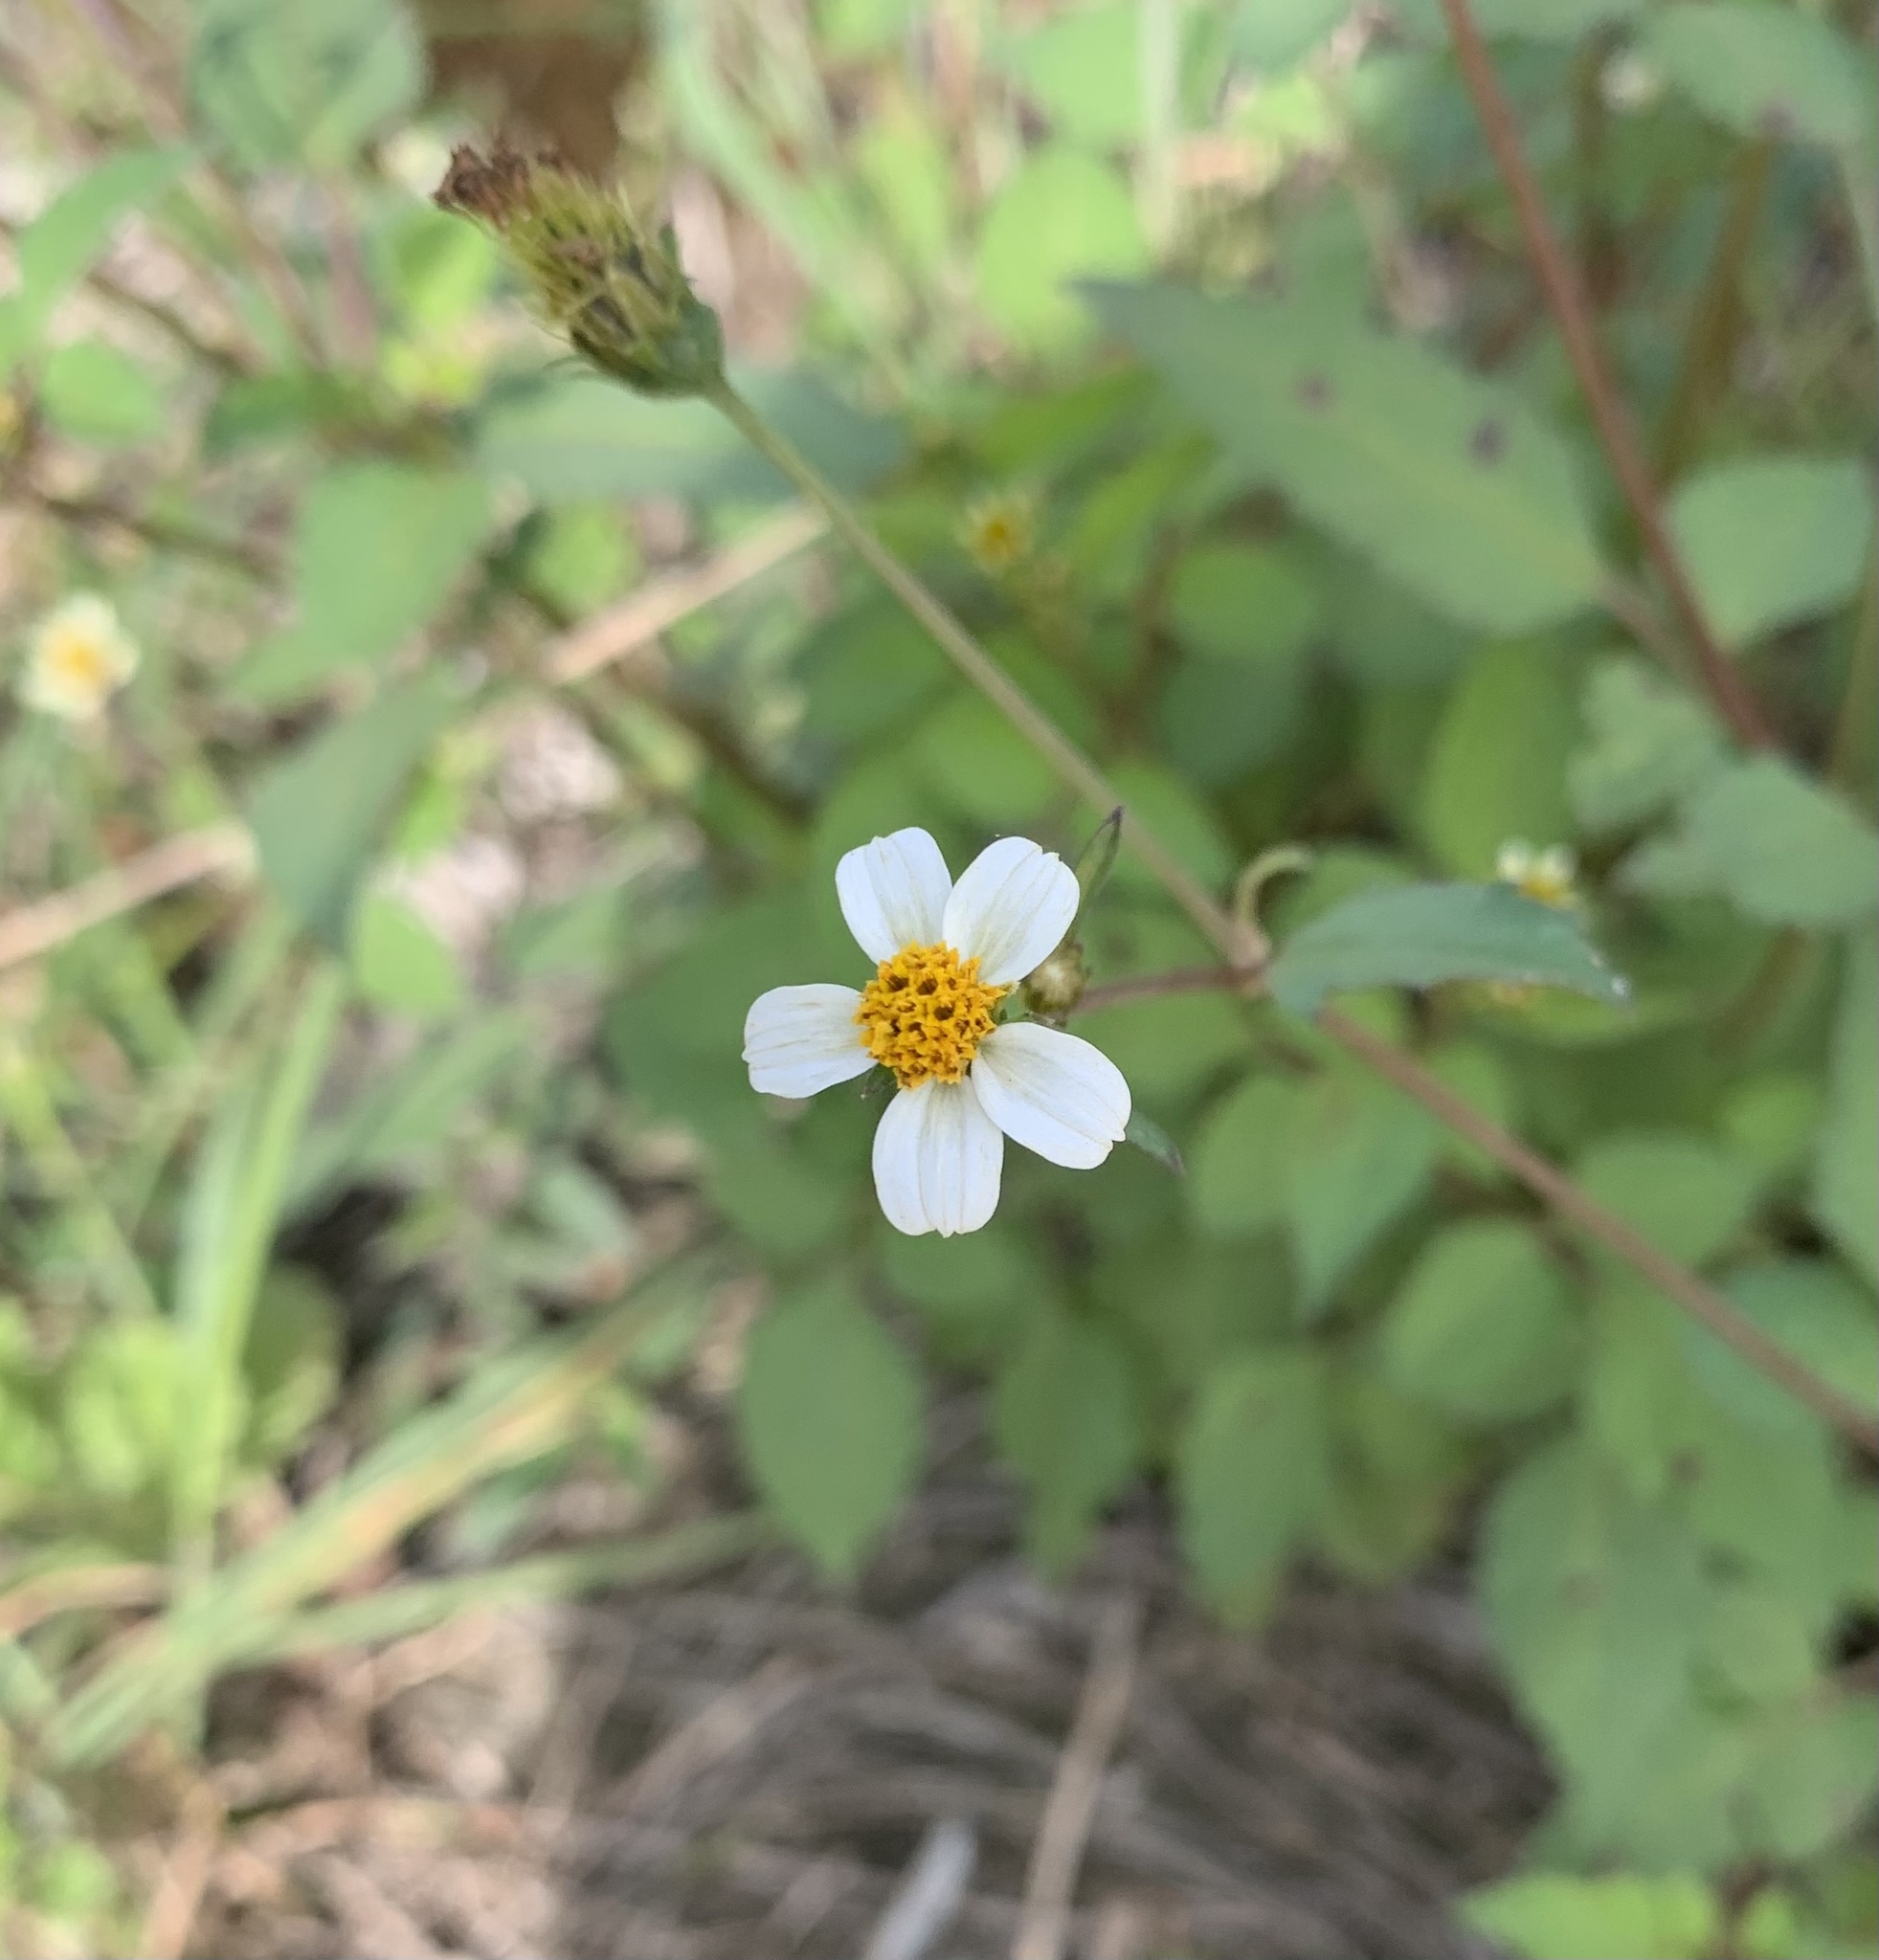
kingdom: Plantae
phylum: Tracheophyta
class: Magnoliopsida
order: Asterales
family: Asteraceae
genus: Bidens
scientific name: Bidens alba
